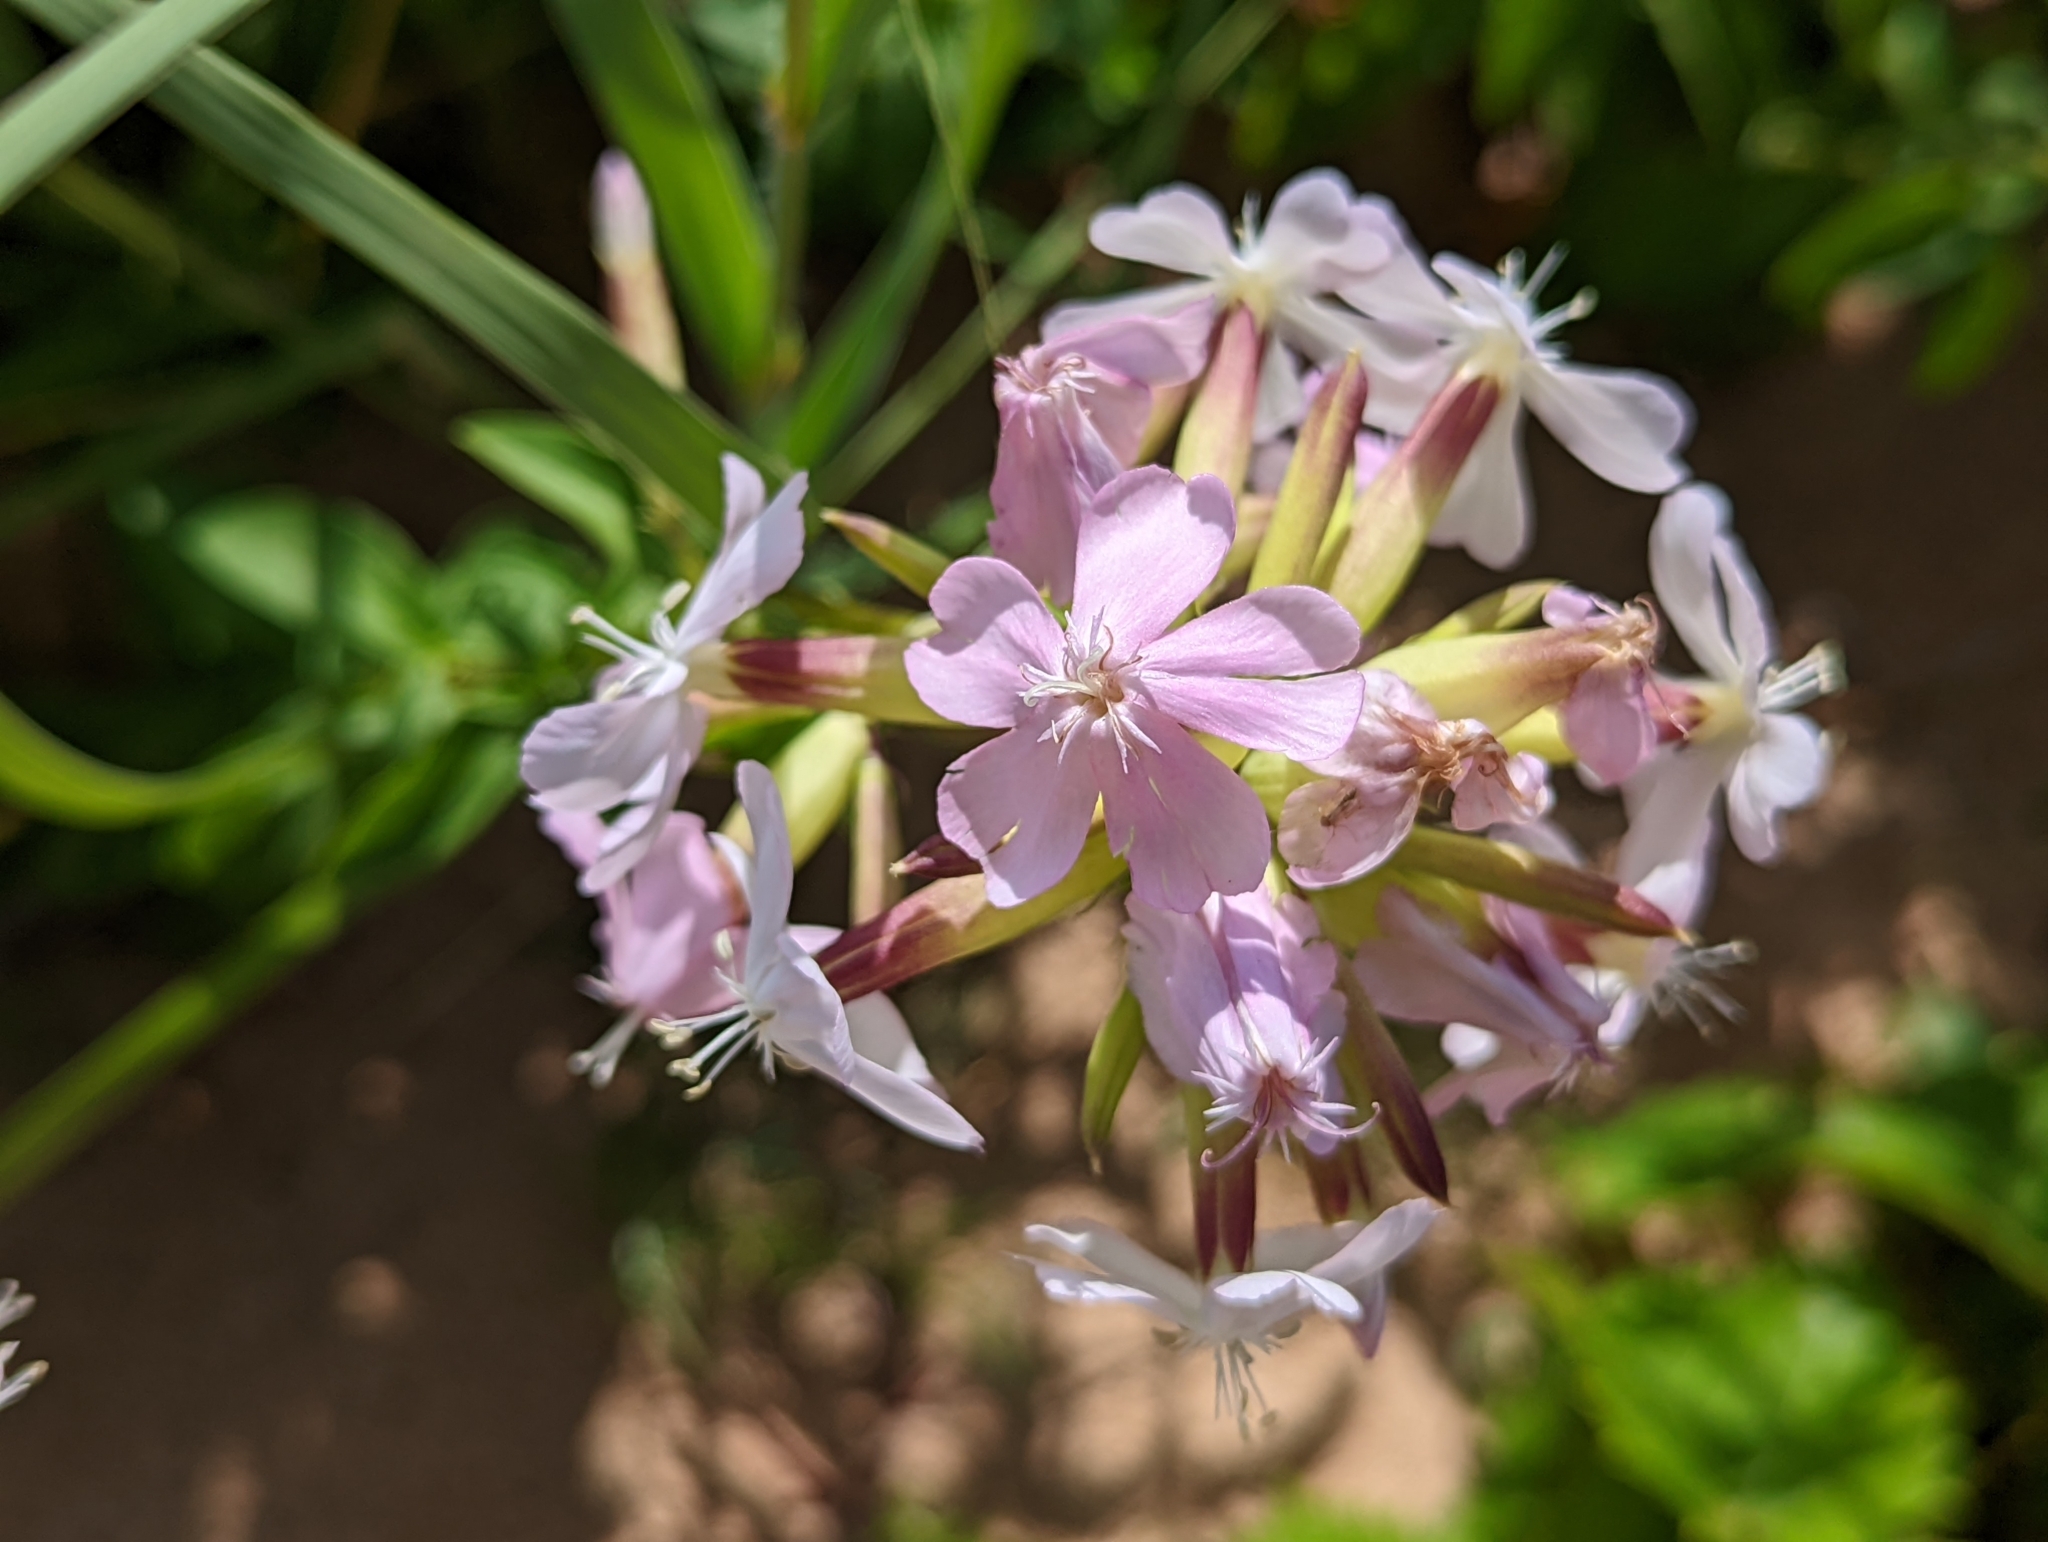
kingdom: Plantae
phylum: Tracheophyta
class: Magnoliopsida
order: Caryophyllales
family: Caryophyllaceae
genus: Saponaria
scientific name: Saponaria officinalis
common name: Soapwort
